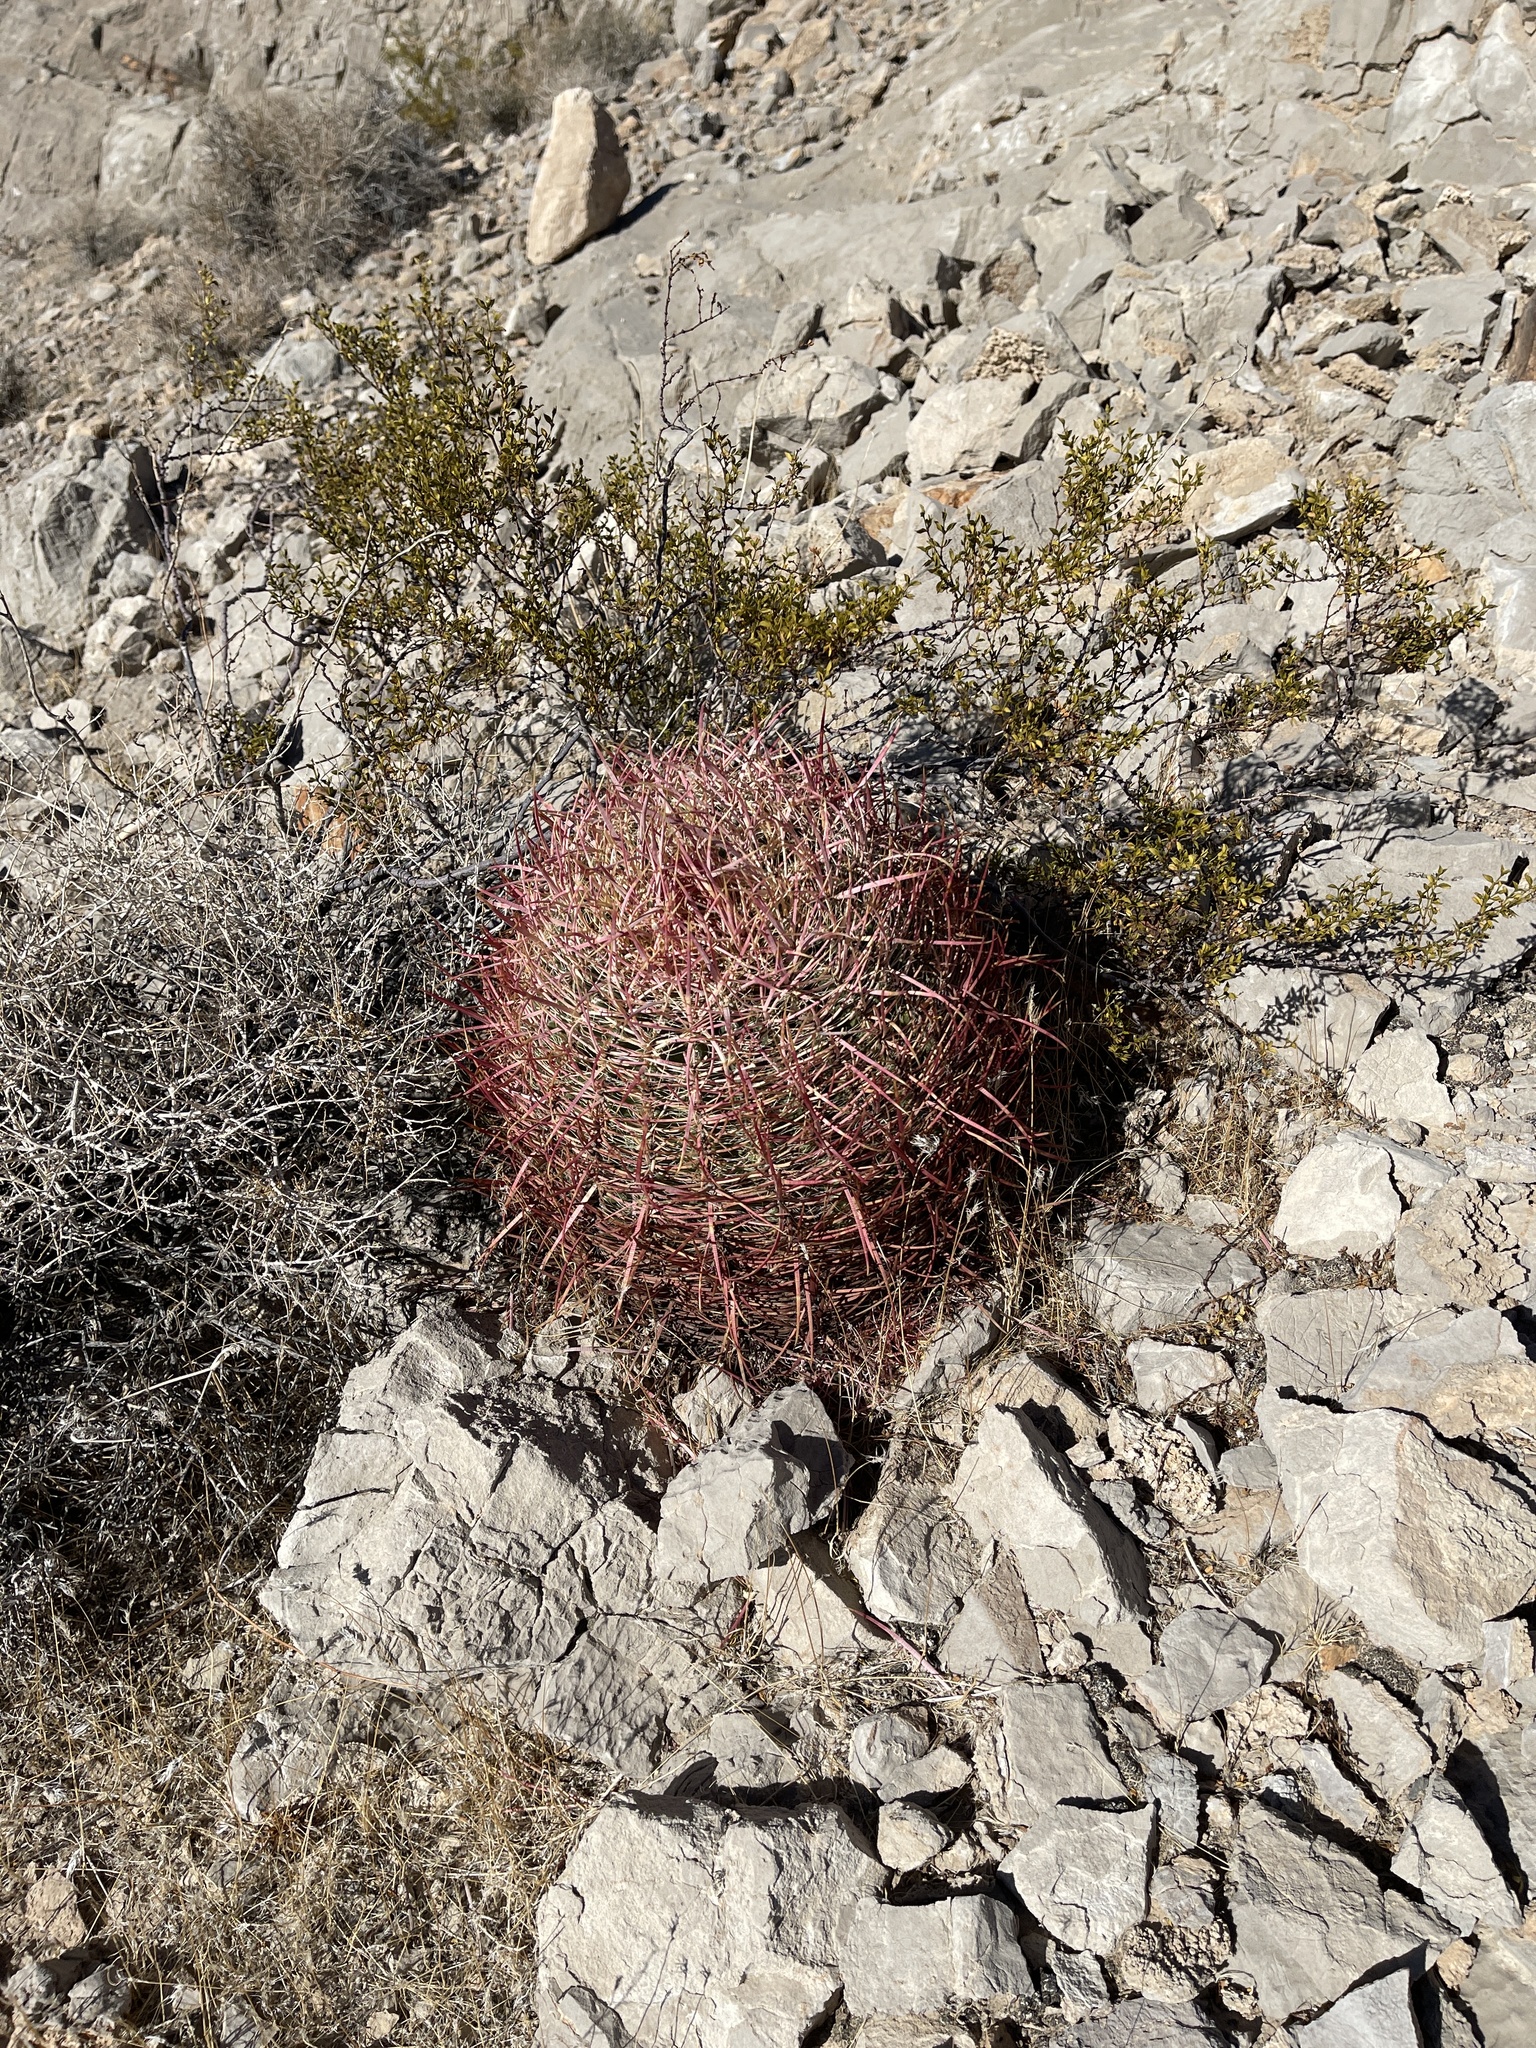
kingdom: Plantae
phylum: Tracheophyta
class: Magnoliopsida
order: Caryophyllales
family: Cactaceae
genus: Ferocactus
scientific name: Ferocactus cylindraceus
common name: California barrel cactus
